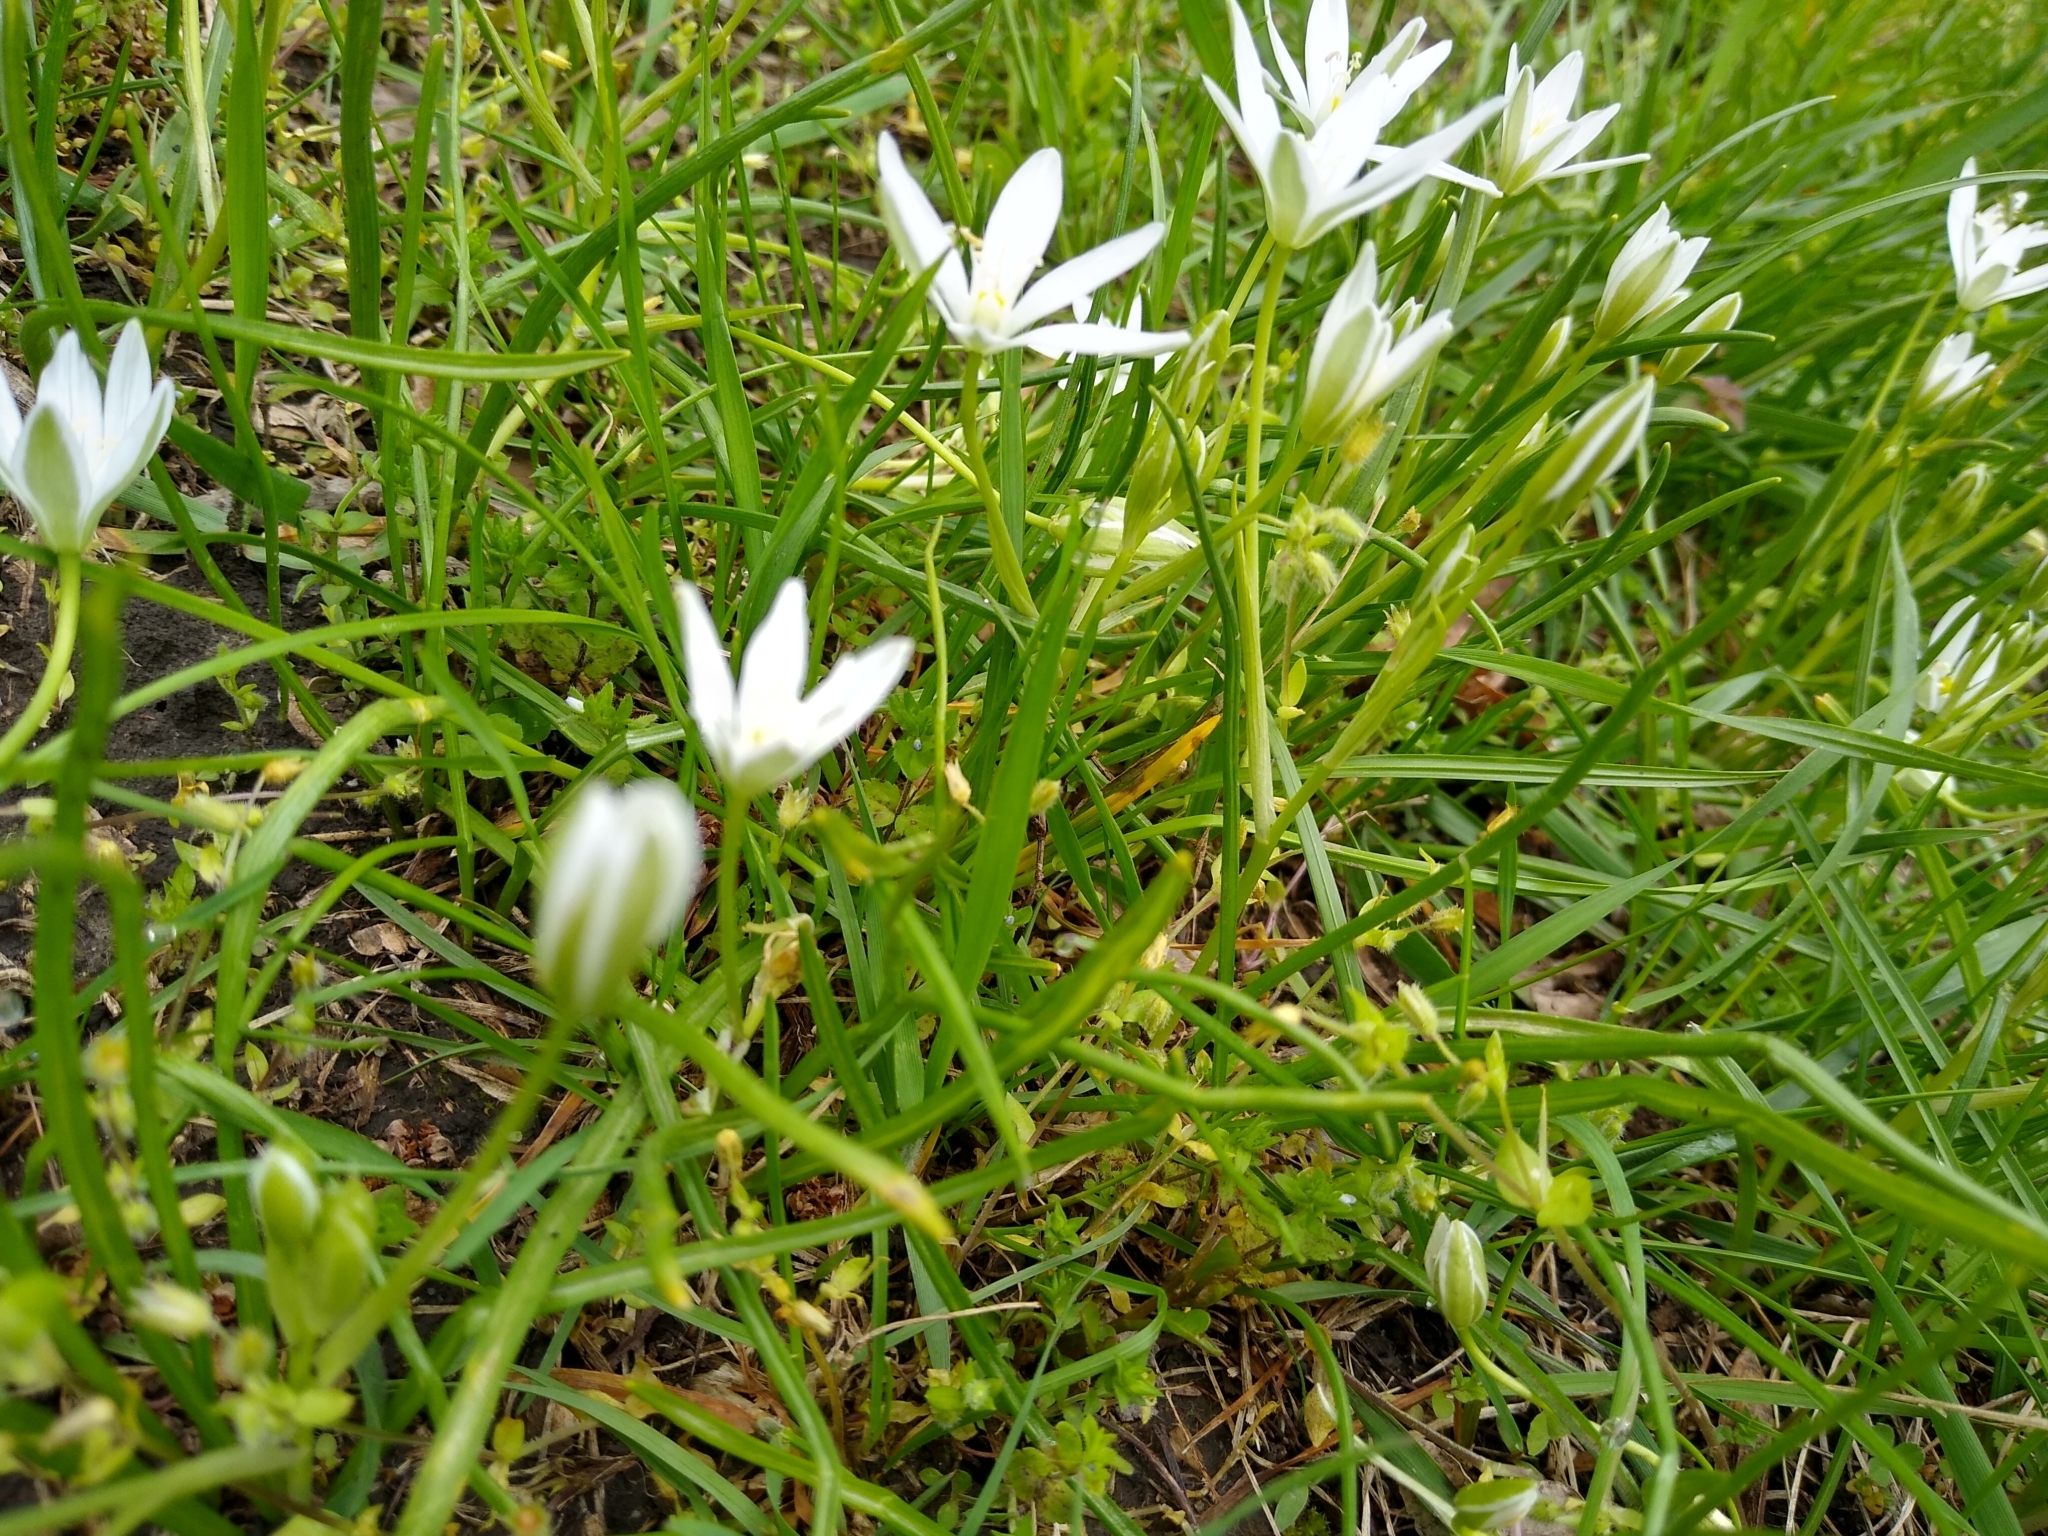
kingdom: Plantae
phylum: Tracheophyta
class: Liliopsida
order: Asparagales
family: Asparagaceae
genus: Ornithogalum
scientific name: Ornithogalum umbellatum
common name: Garden star-of-bethlehem
